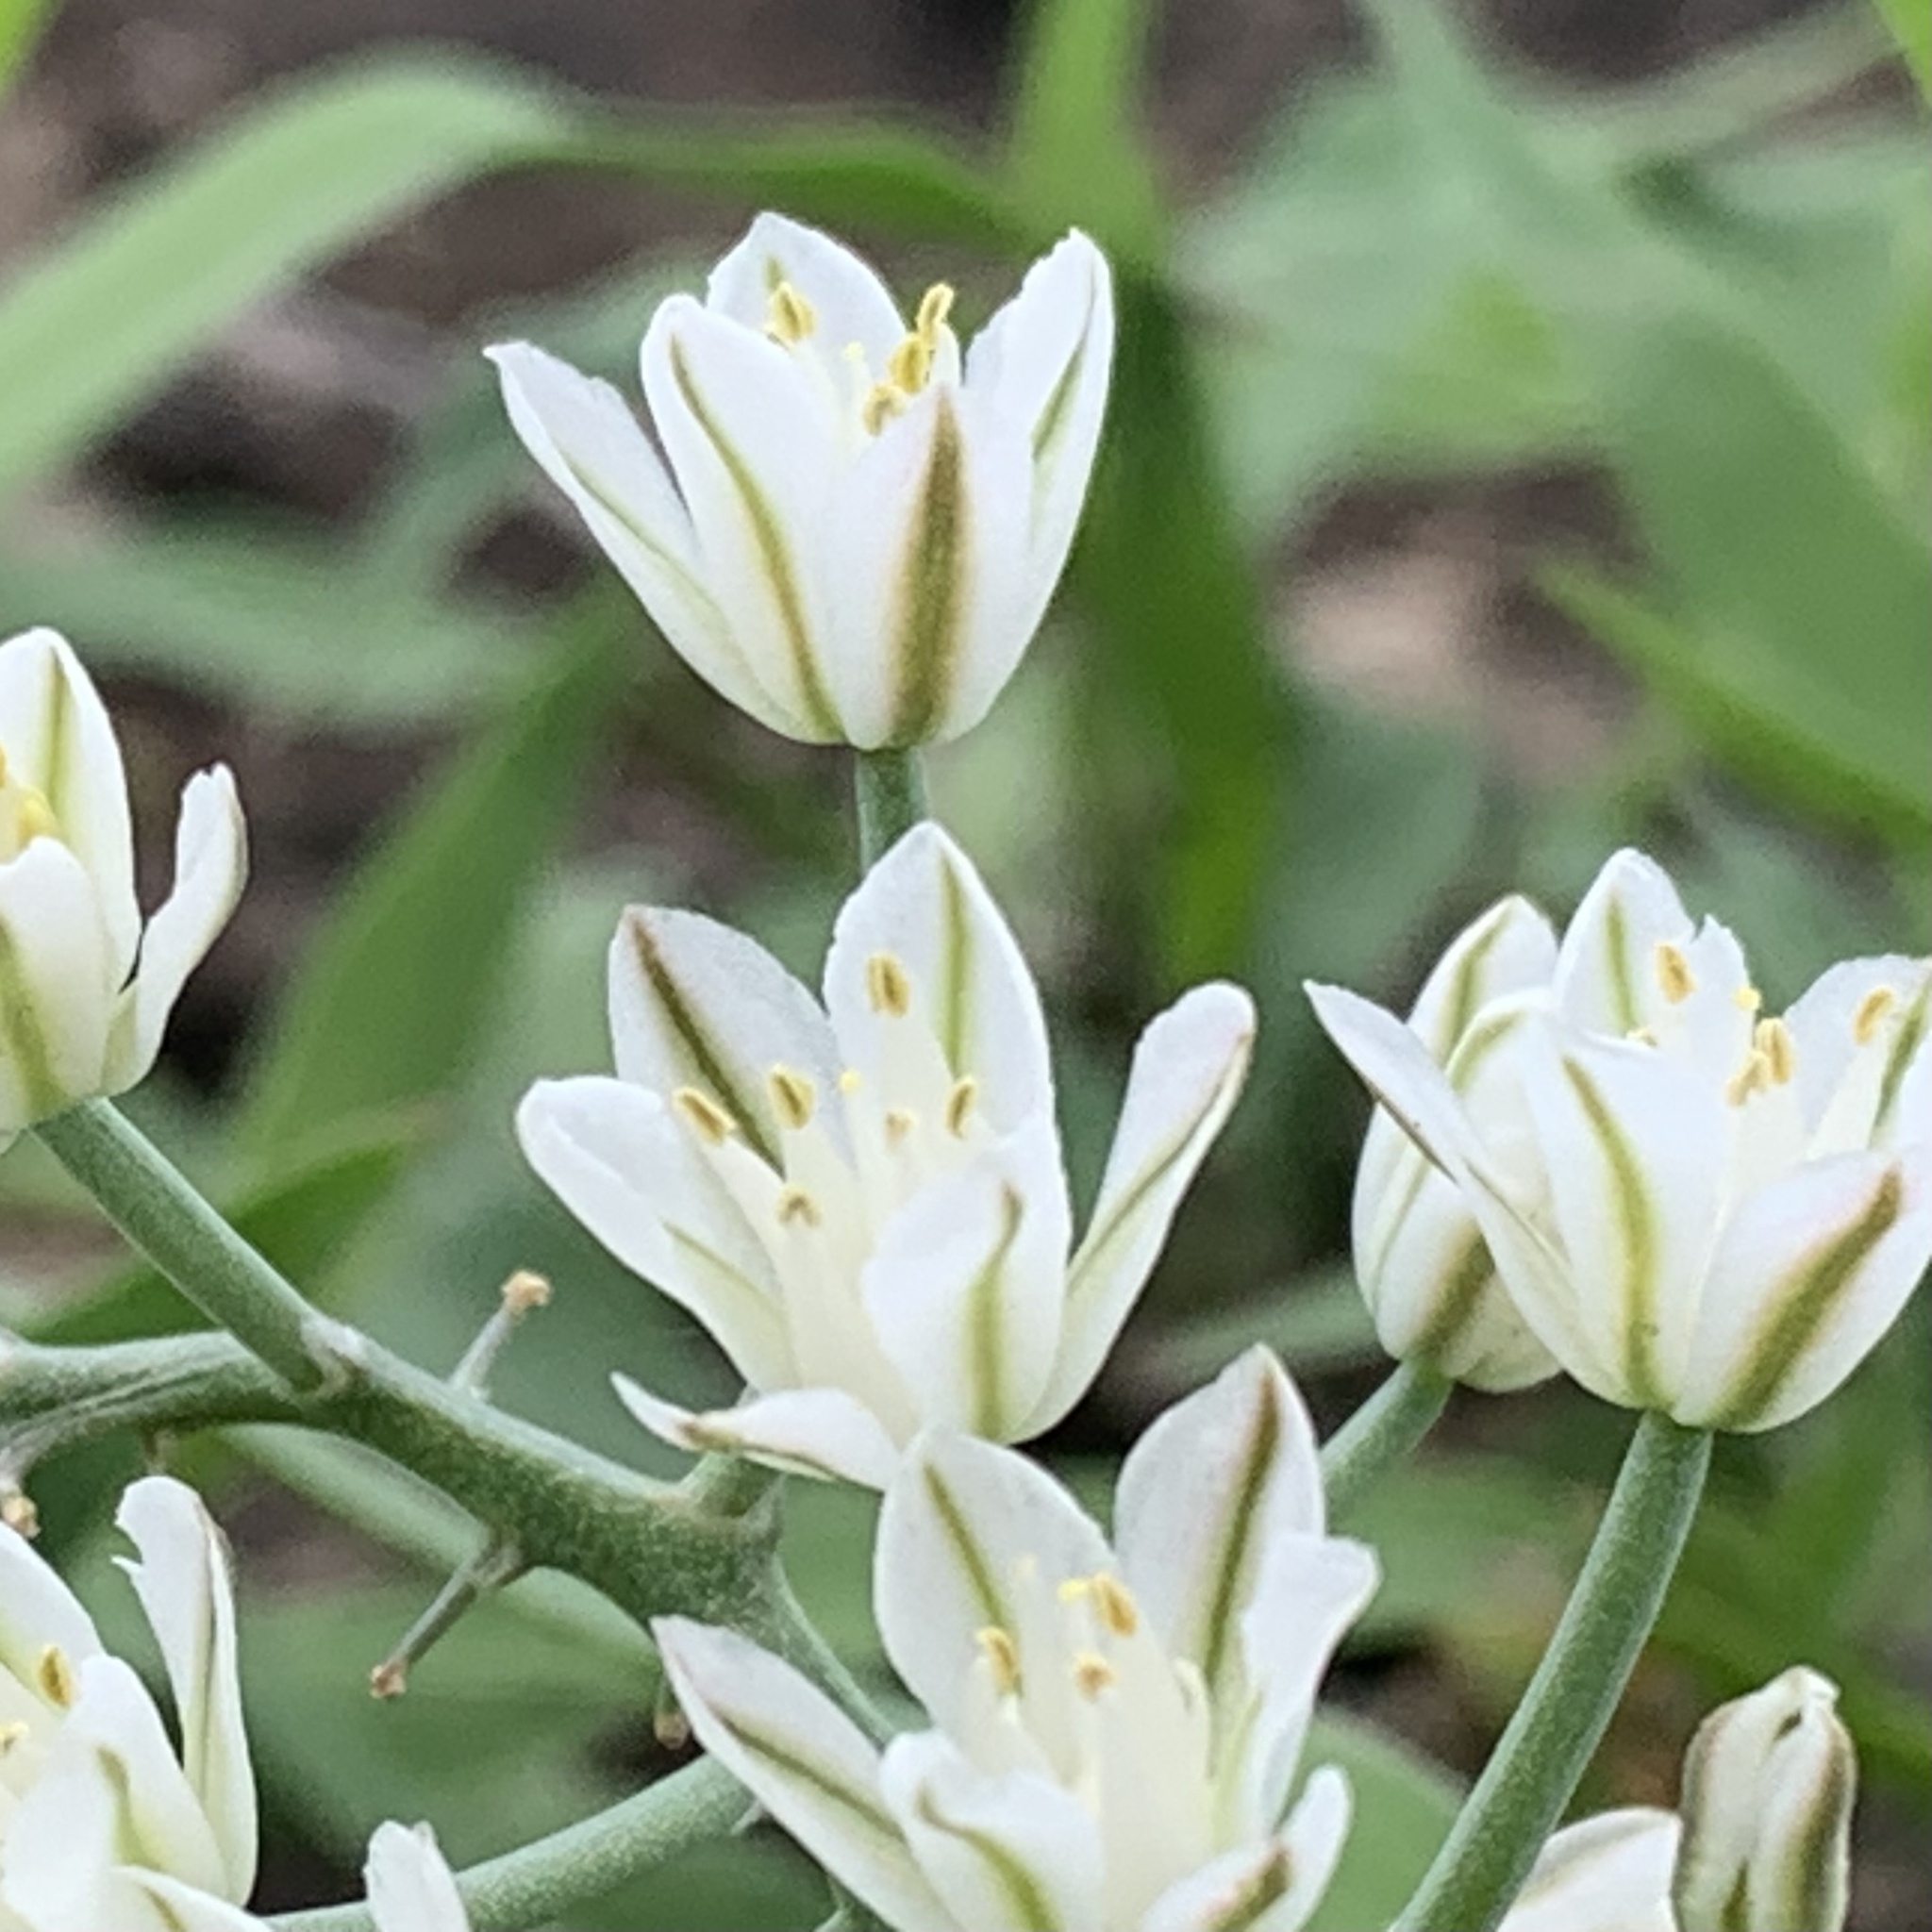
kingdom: Plantae
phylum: Tracheophyta
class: Liliopsida
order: Asparagales
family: Asparagaceae
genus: Eriospermum
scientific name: Eriospermum currorii
